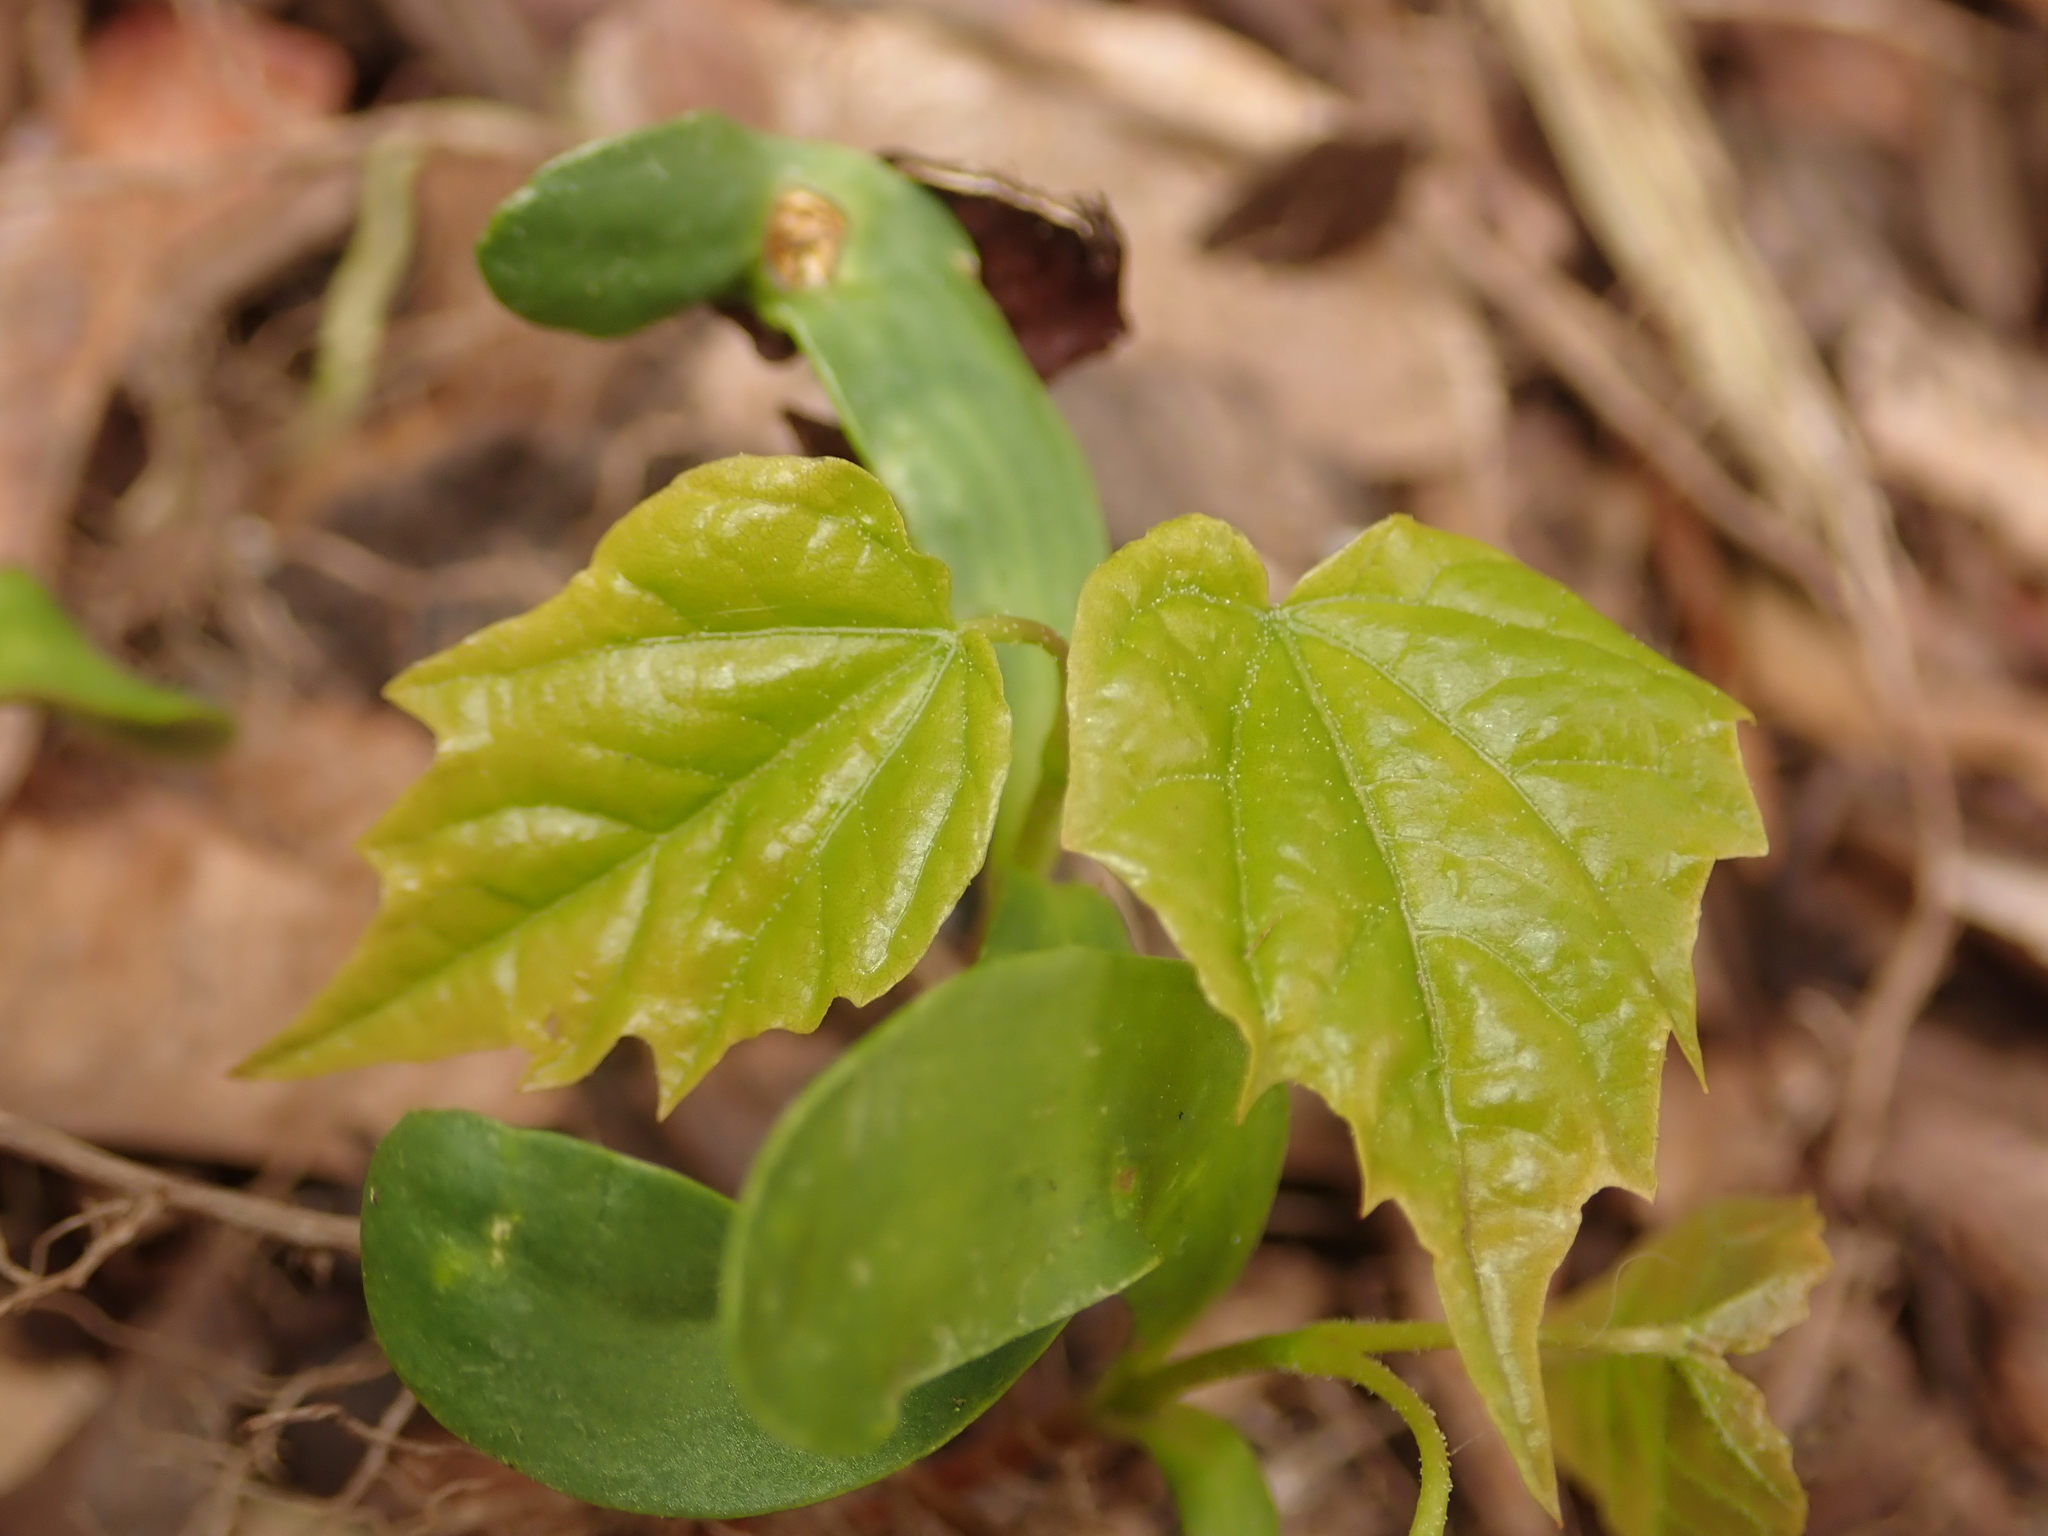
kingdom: Plantae
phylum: Tracheophyta
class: Magnoliopsida
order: Sapindales
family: Sapindaceae
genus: Acer
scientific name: Acer platanoides
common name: Norway maple
